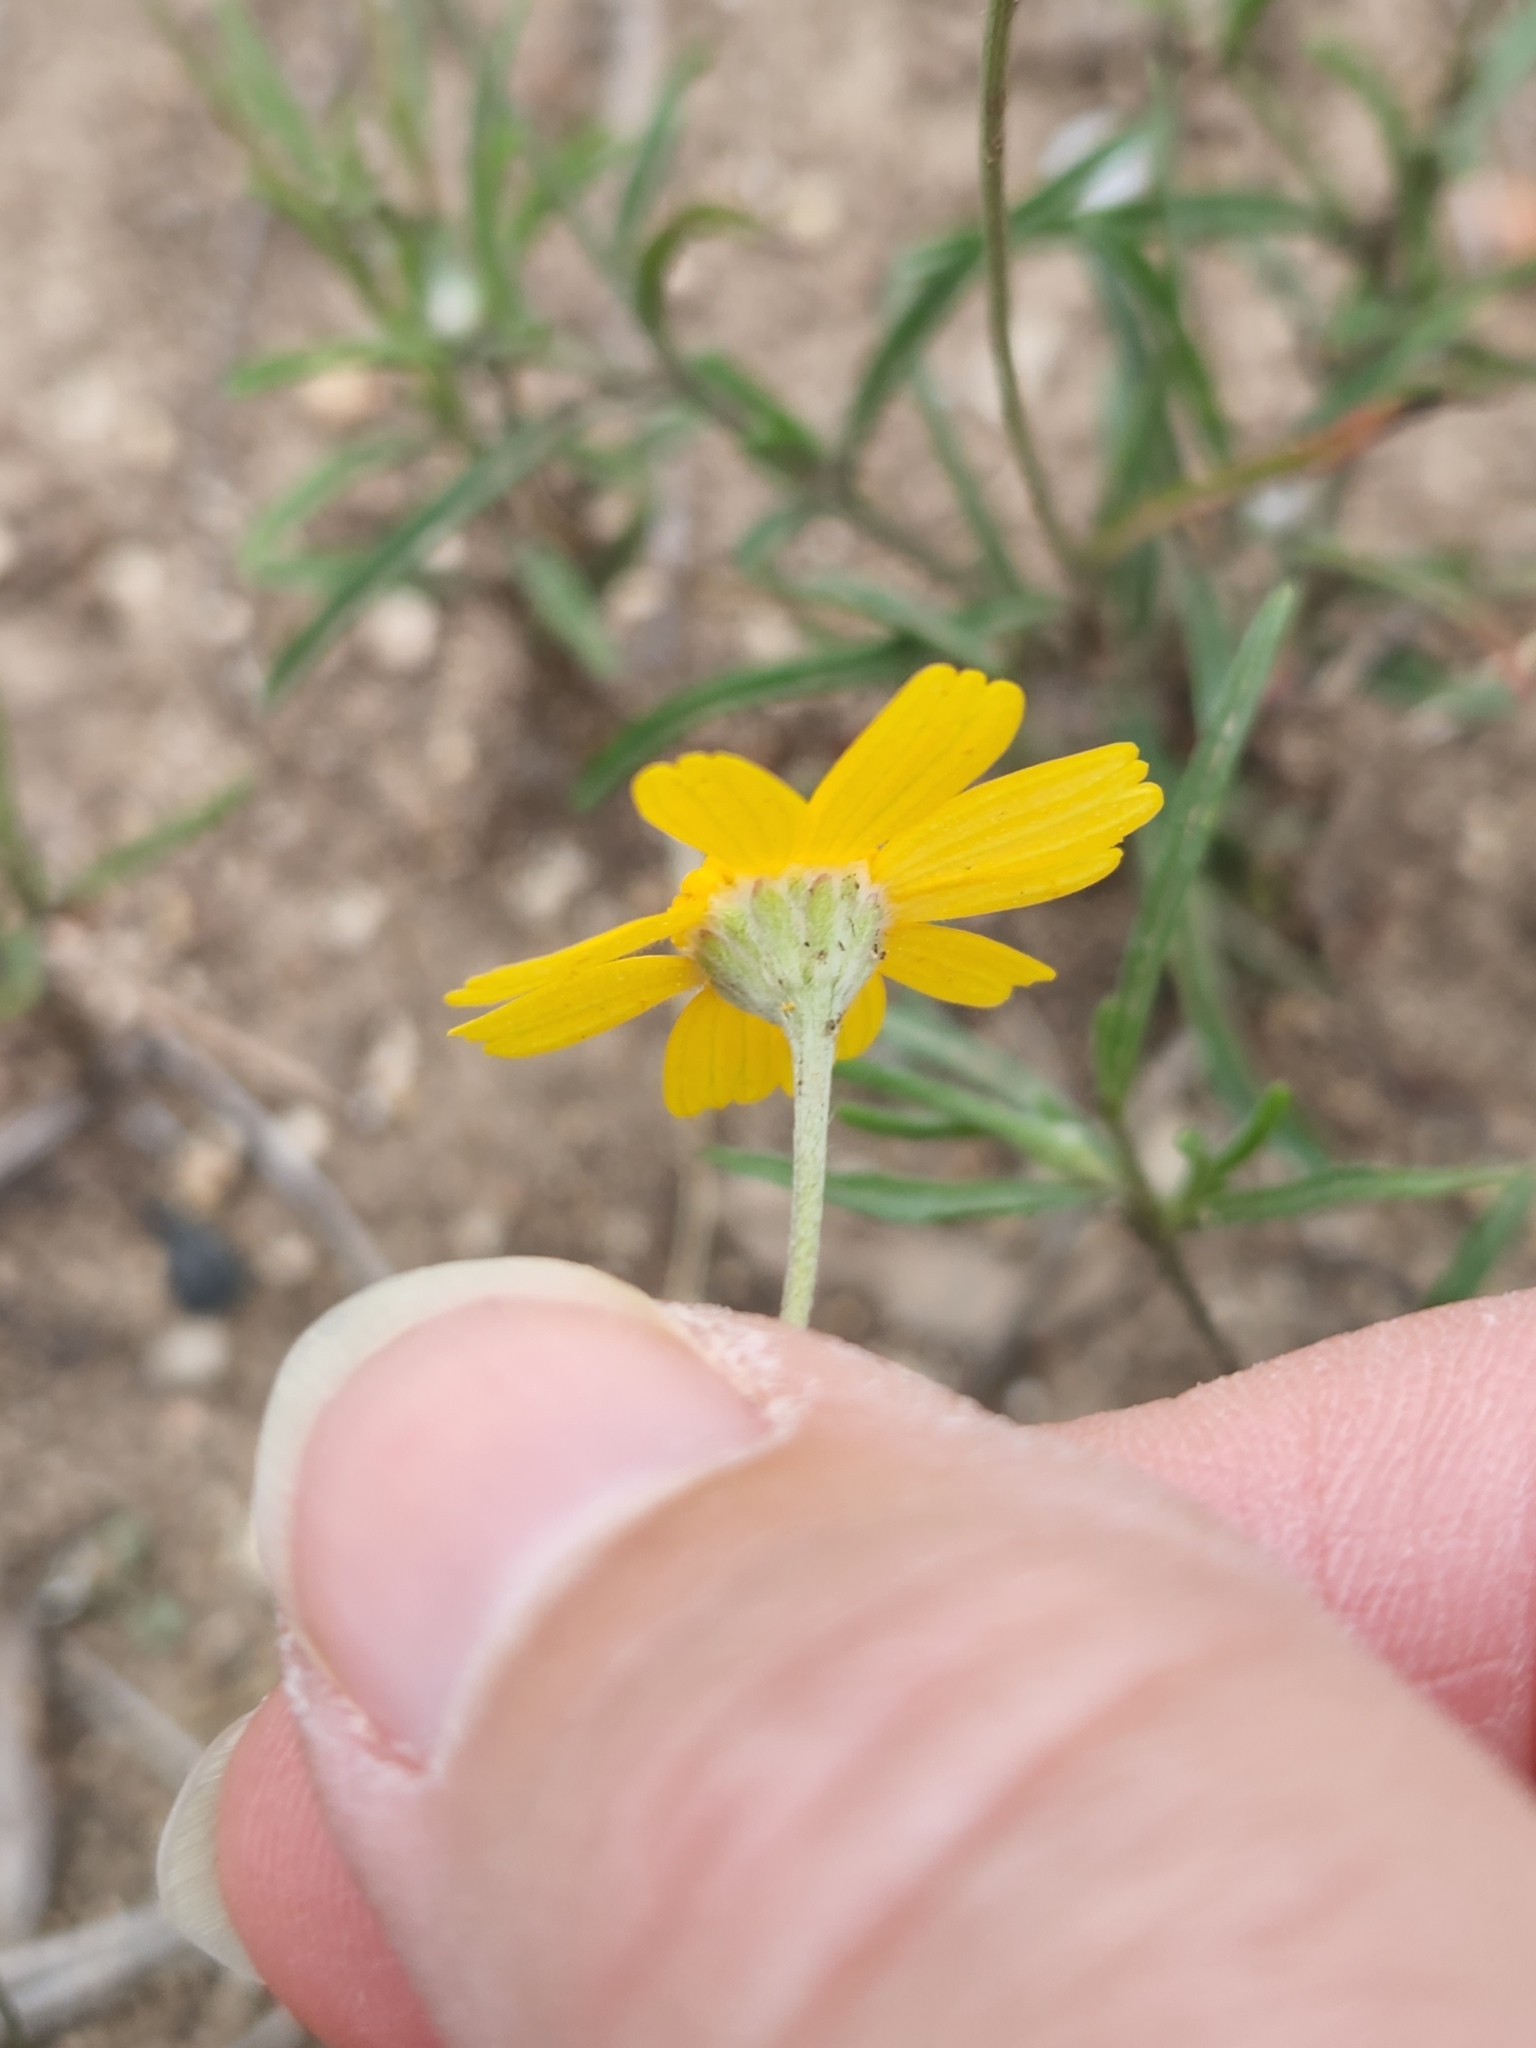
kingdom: Plantae
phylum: Tracheophyta
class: Magnoliopsida
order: Asterales
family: Asteraceae
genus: Tetraneuris
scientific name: Tetraneuris linearifolia
